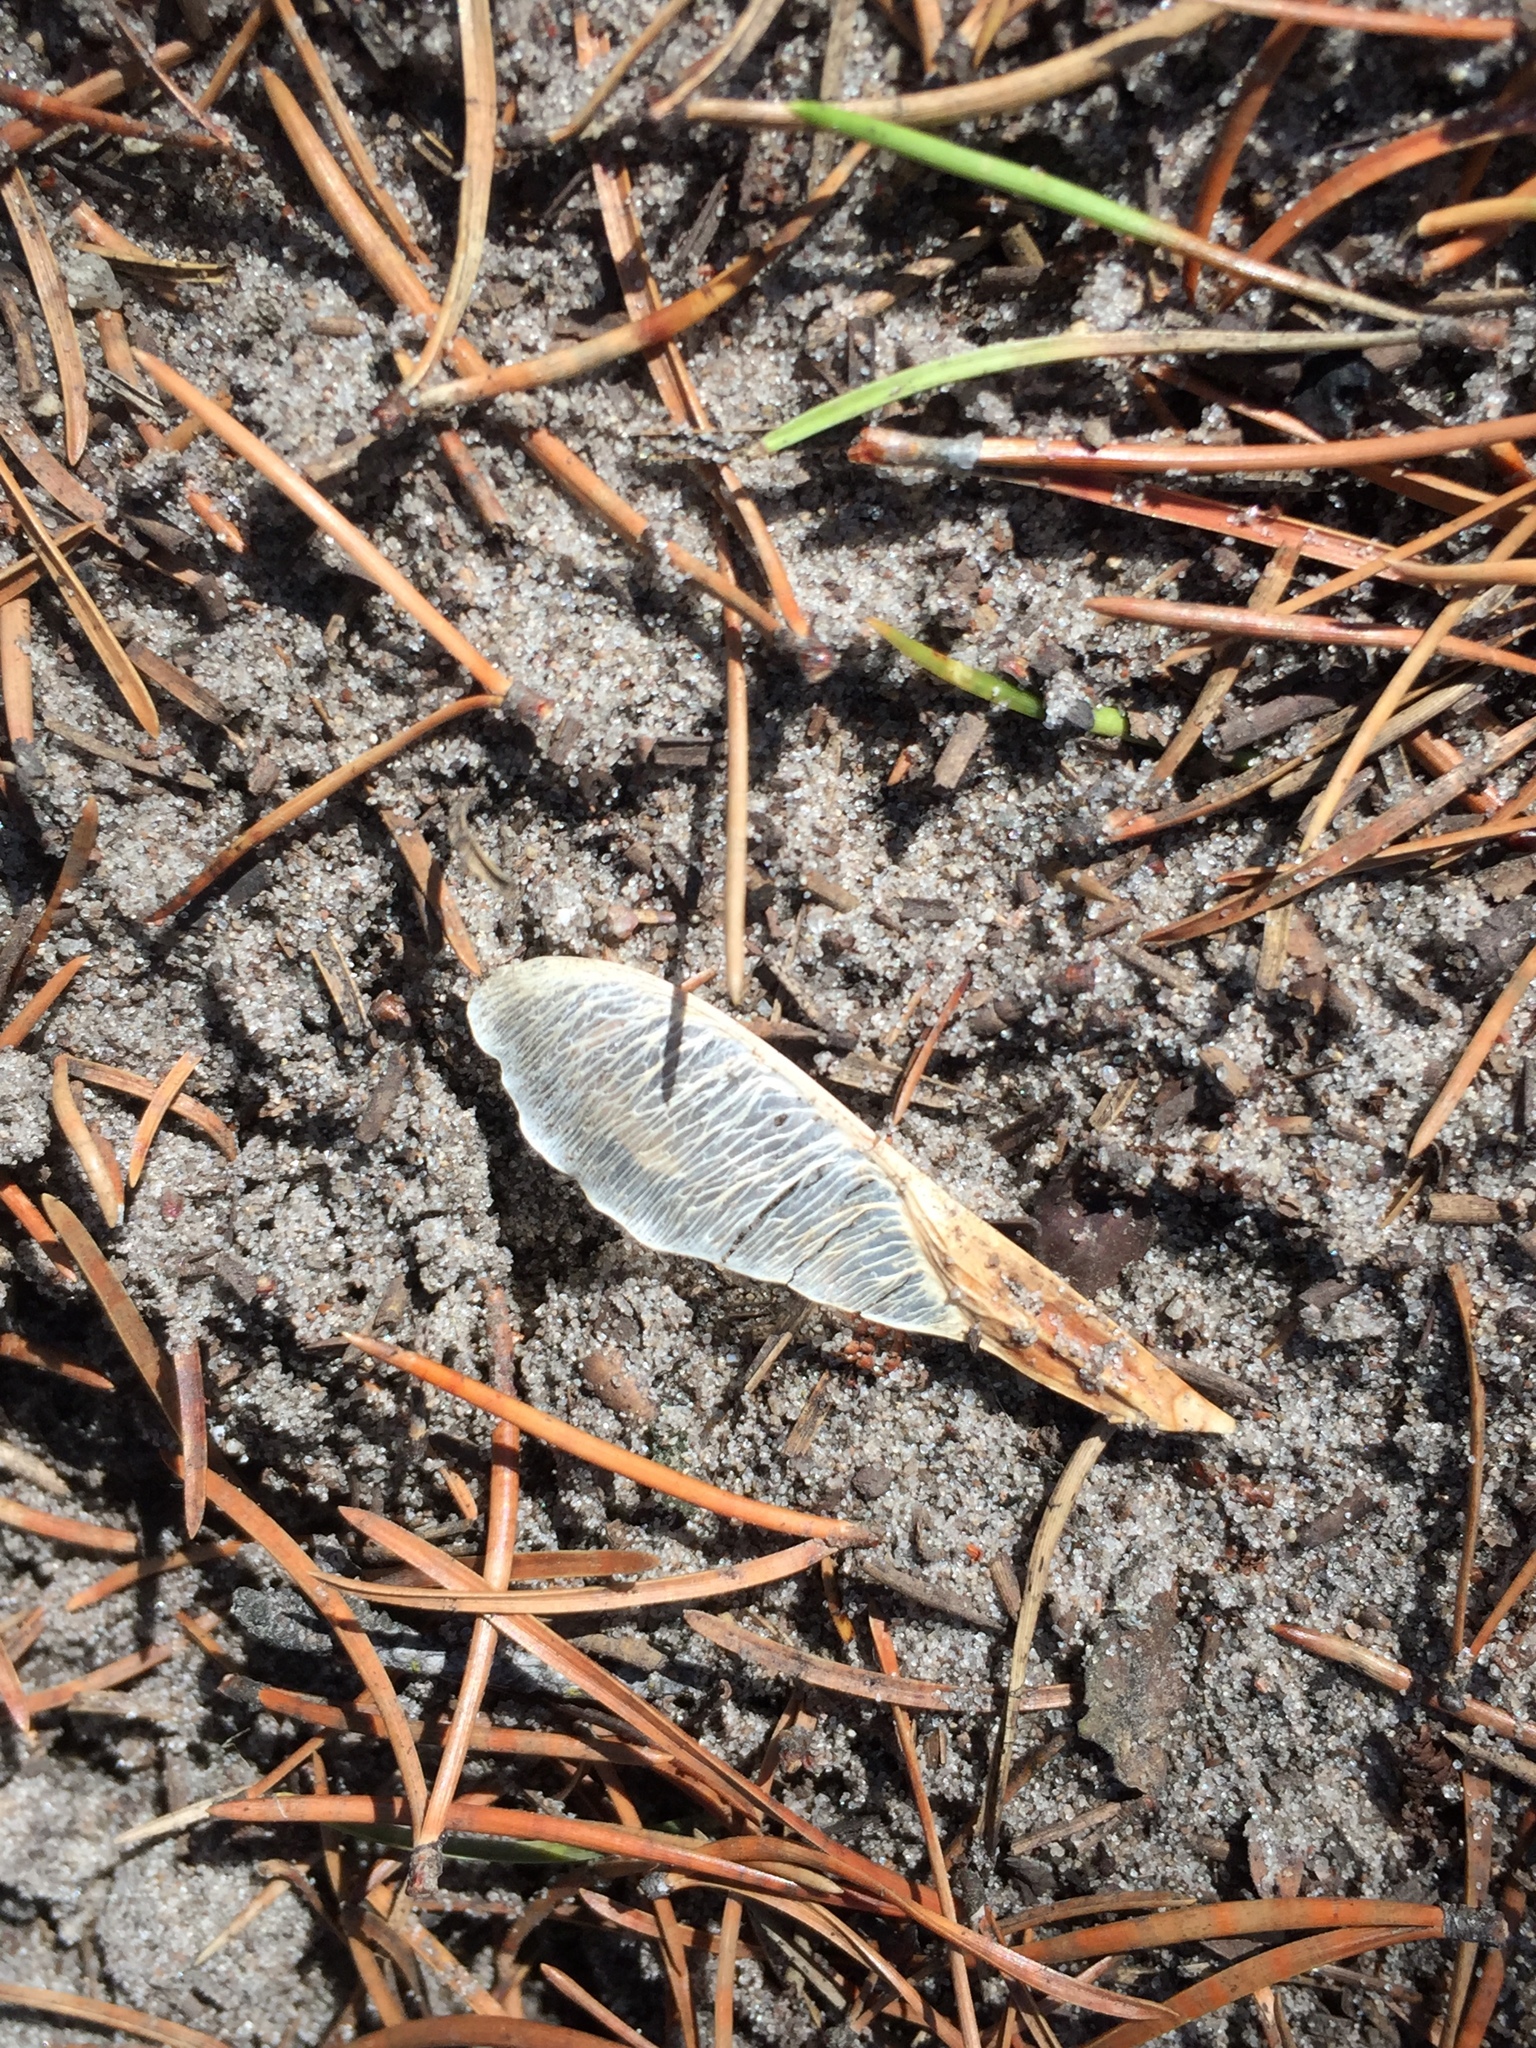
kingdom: Plantae
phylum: Tracheophyta
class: Magnoliopsida
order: Sapindales
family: Sapindaceae
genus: Acer
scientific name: Acer negundo
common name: Ashleaf maple
